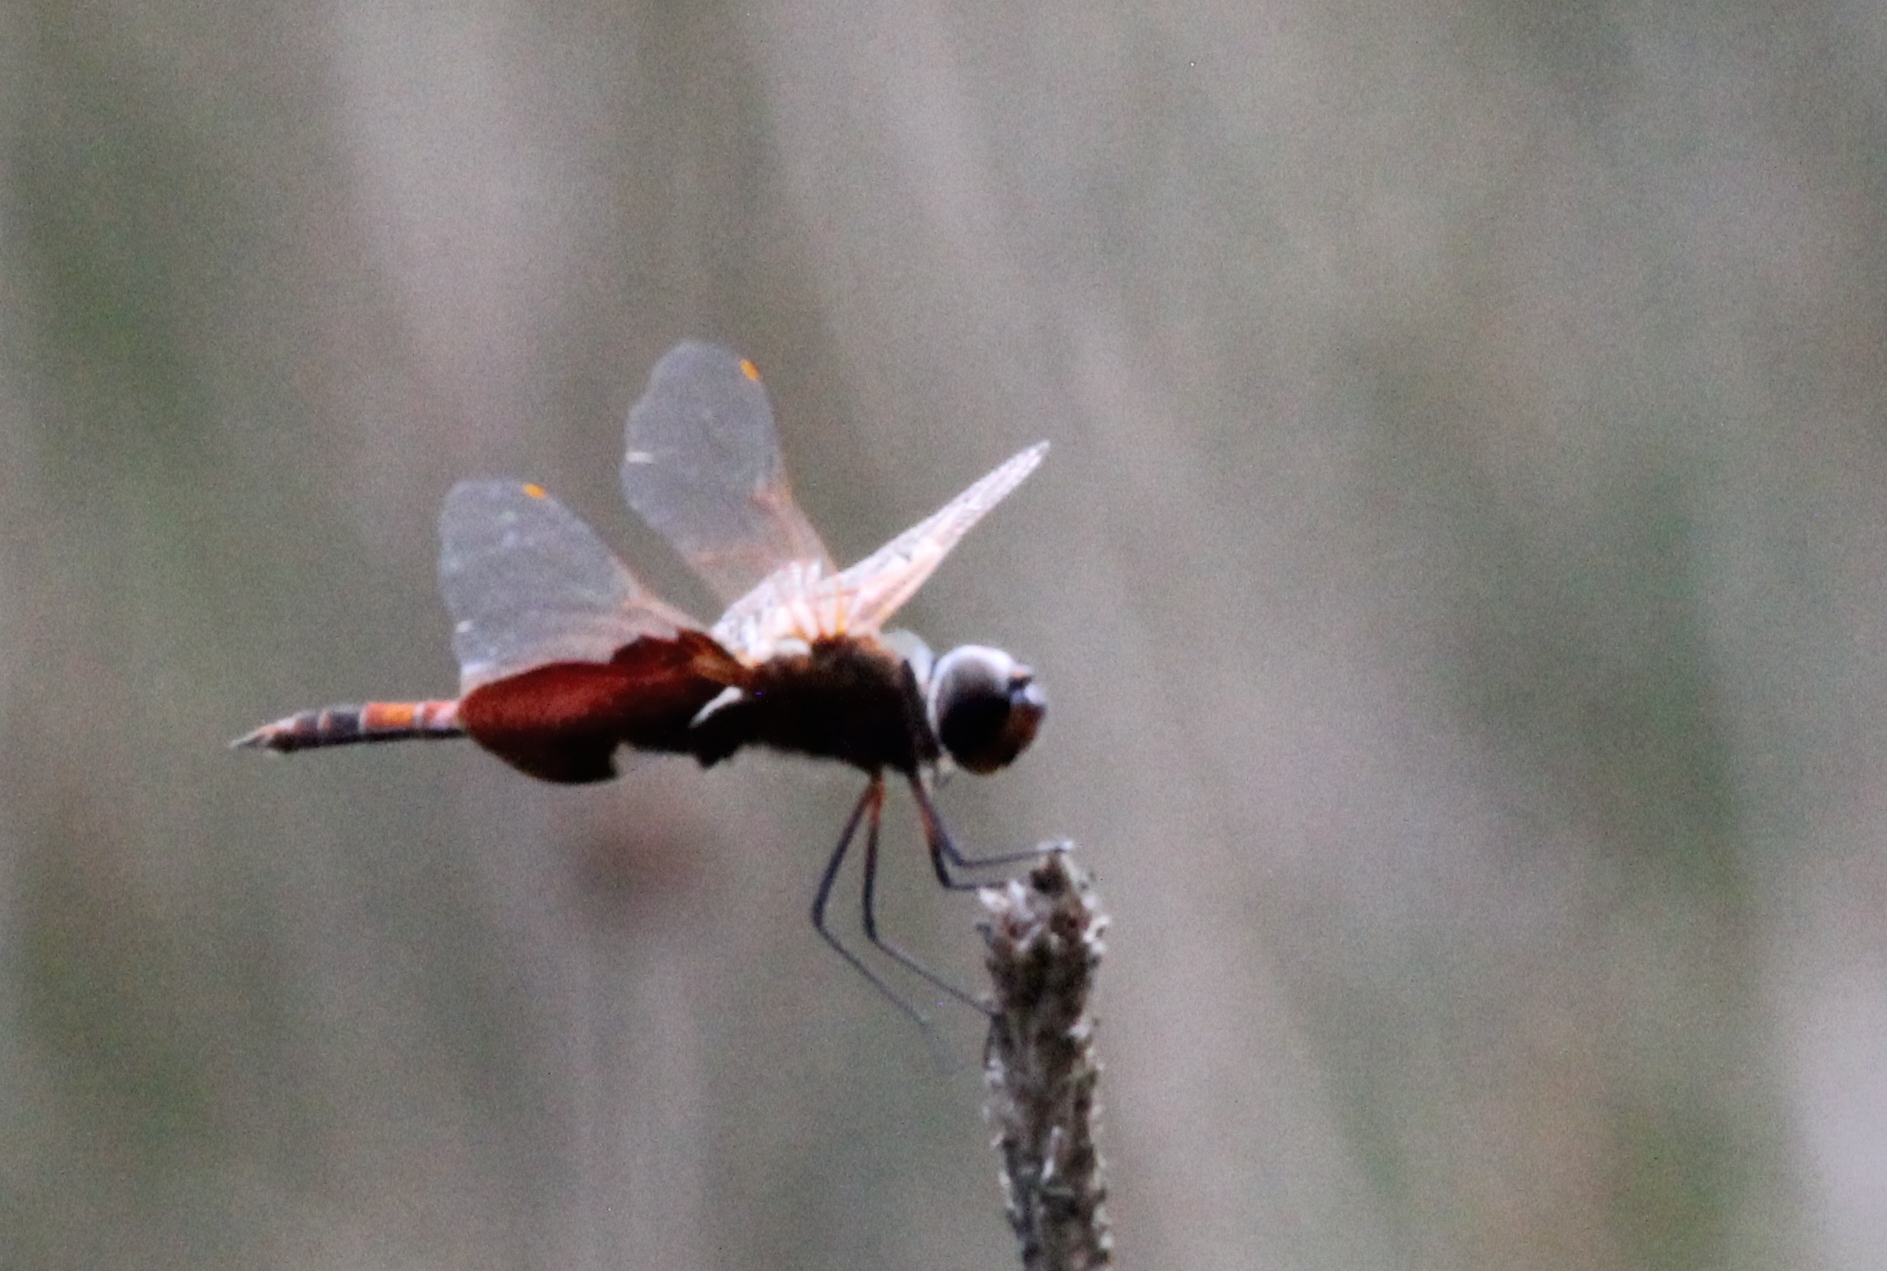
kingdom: Animalia
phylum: Arthropoda
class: Insecta
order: Odonata
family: Libellulidae
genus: Tramea
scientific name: Tramea carolina
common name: Carolina saddlebags
